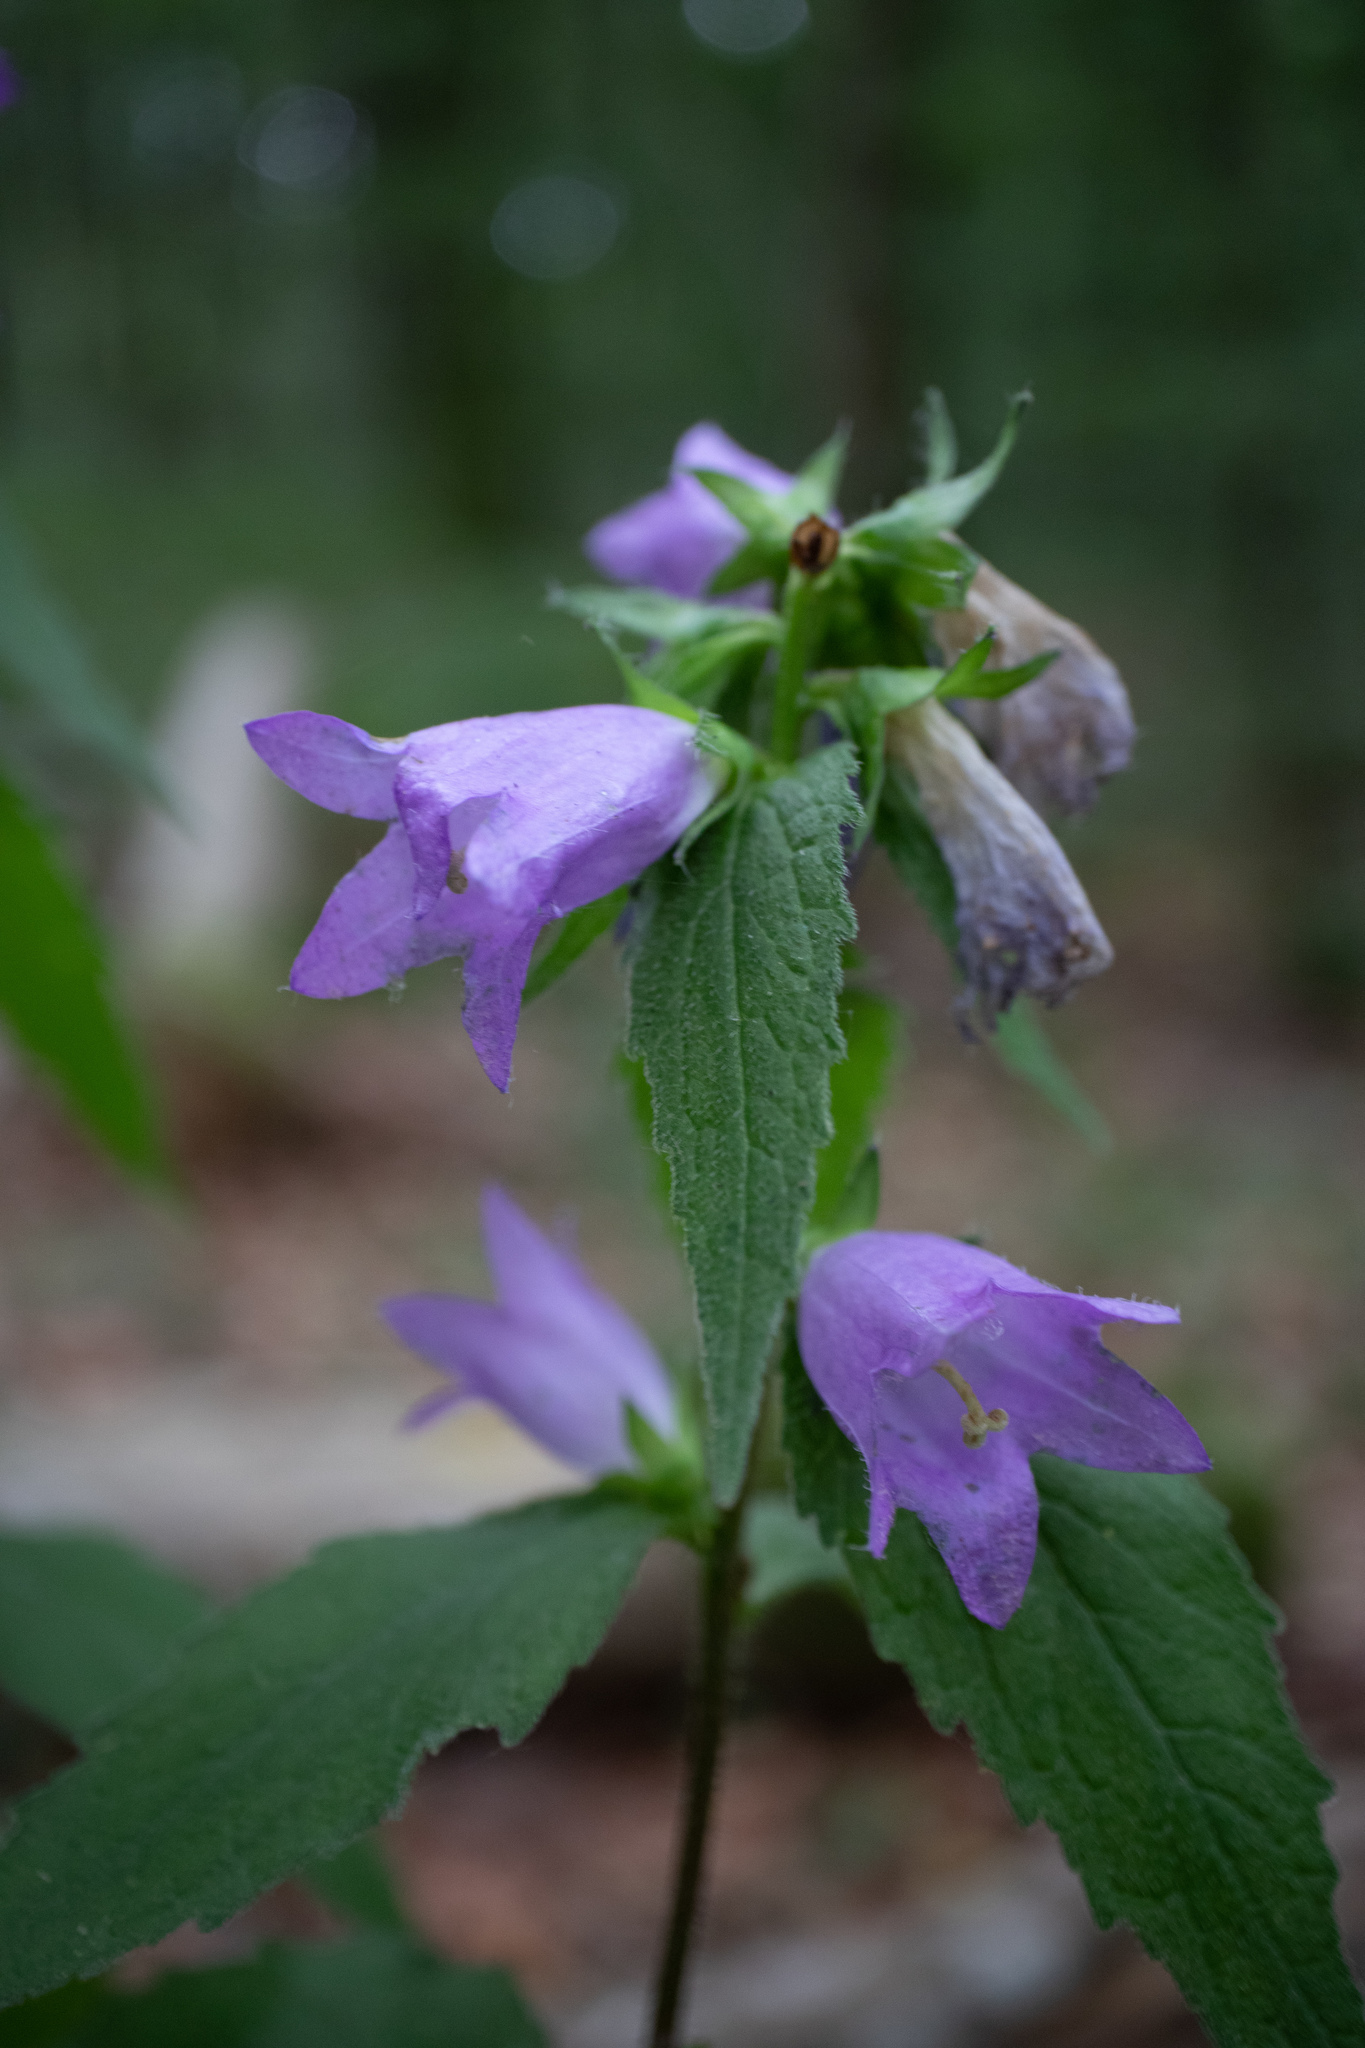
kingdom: Plantae
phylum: Tracheophyta
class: Magnoliopsida
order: Asterales
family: Campanulaceae
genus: Campanula
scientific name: Campanula trachelium
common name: Nettle-leaved bellflower
